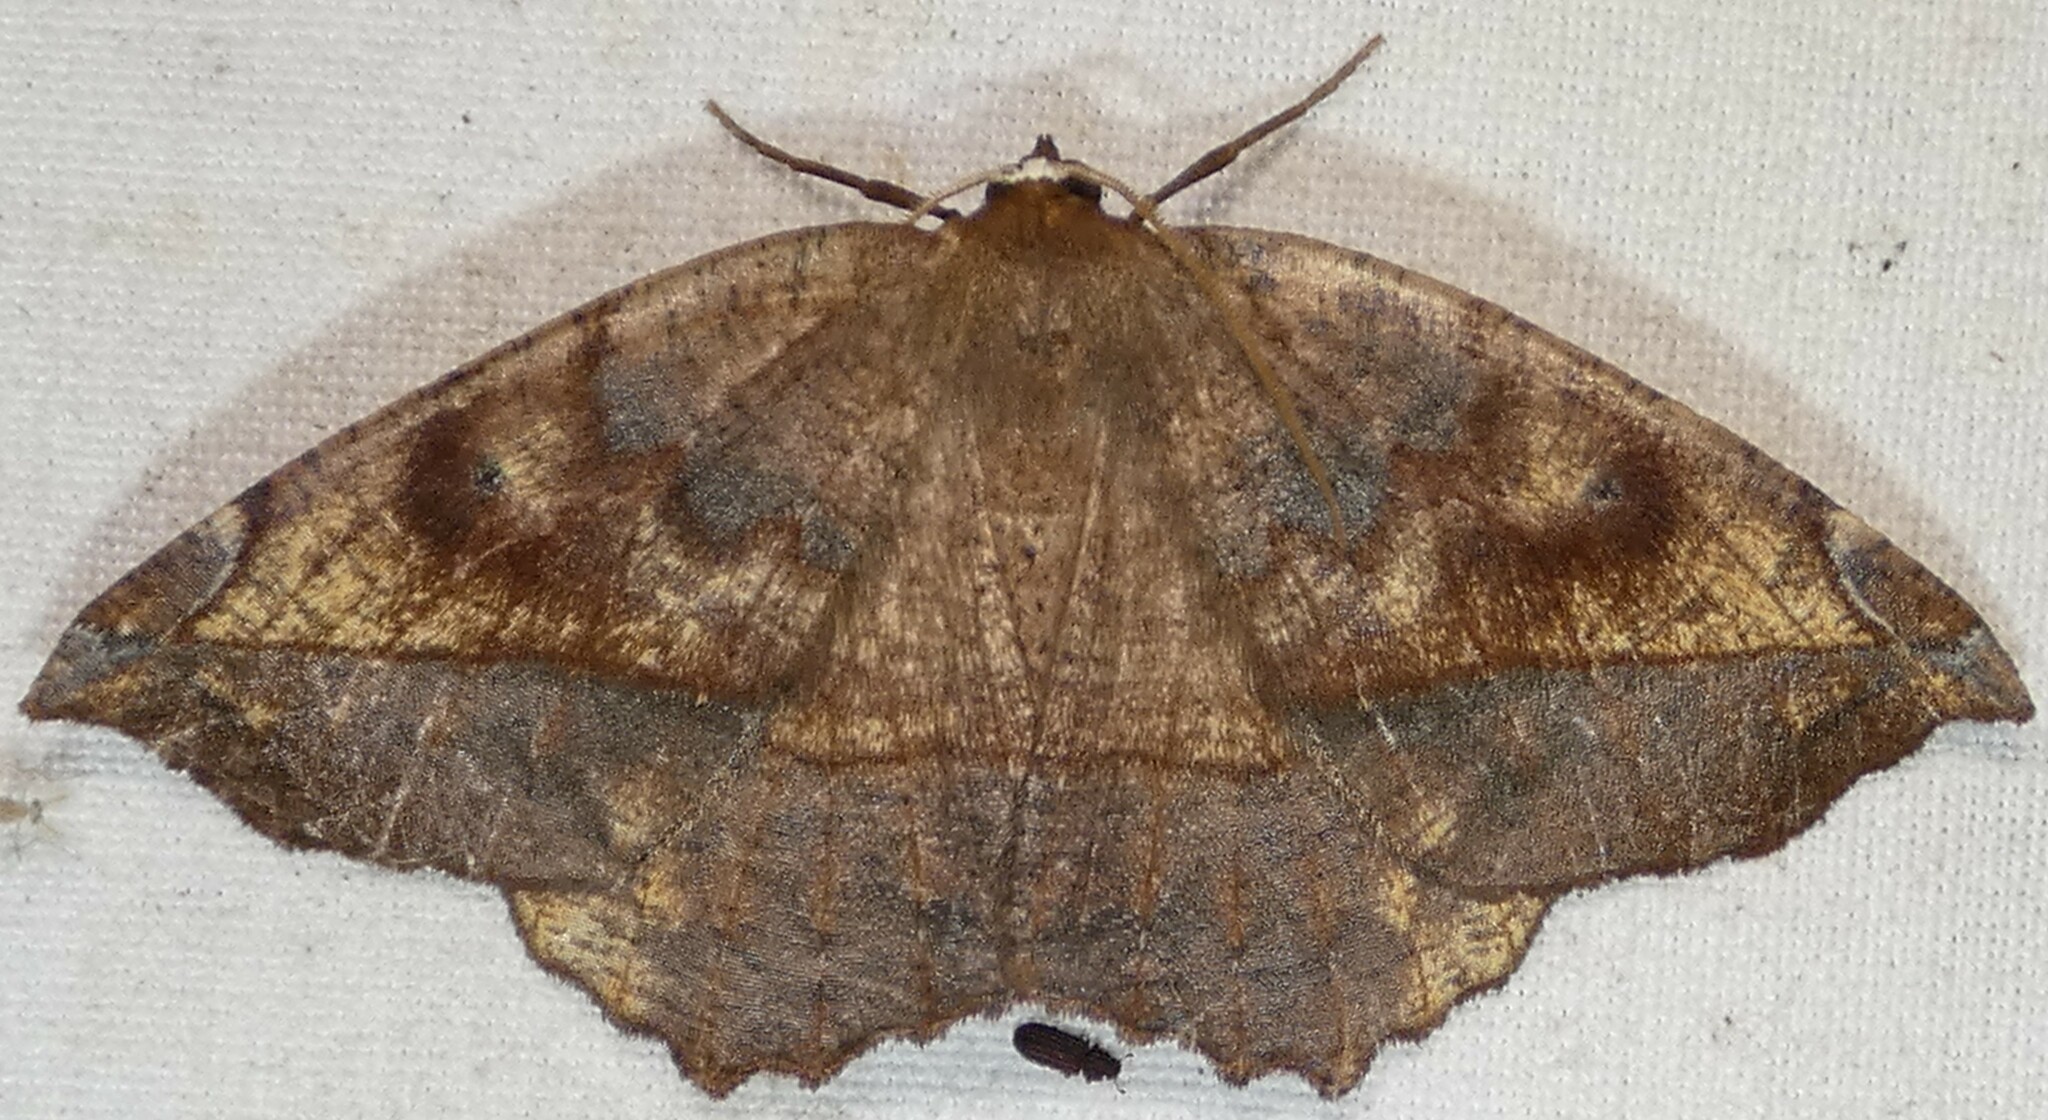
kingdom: Animalia
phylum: Arthropoda
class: Insecta
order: Lepidoptera
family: Geometridae
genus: Eutrapela
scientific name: Eutrapela clemataria
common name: Curved-toothed geometer
